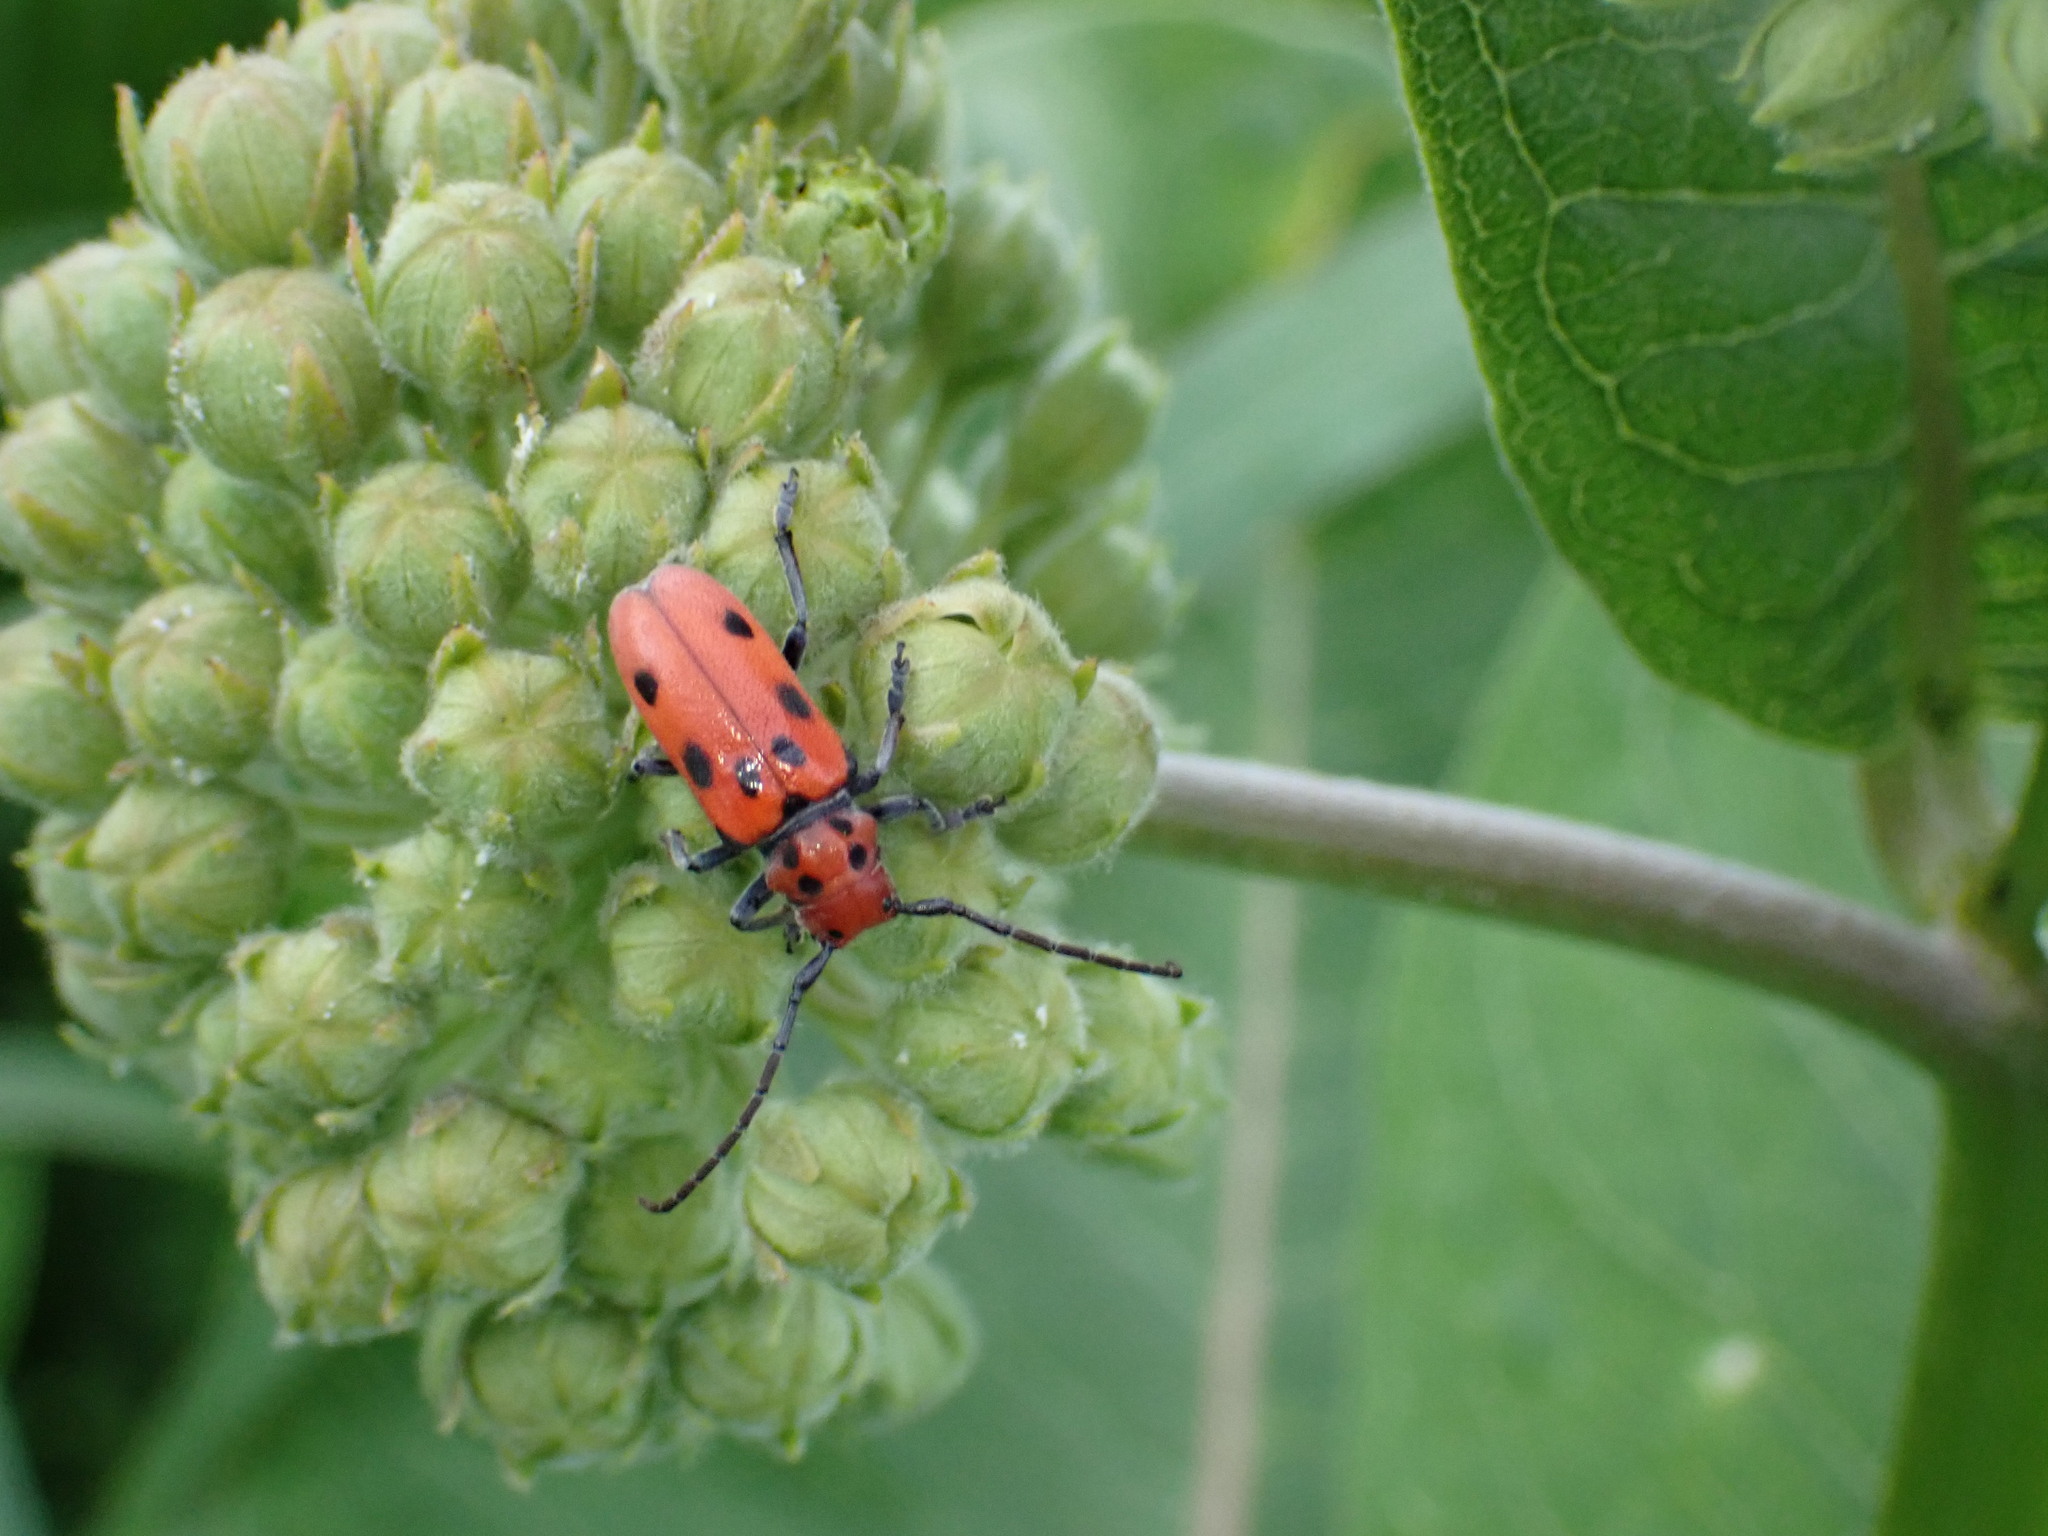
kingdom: Animalia
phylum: Arthropoda
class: Insecta
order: Coleoptera
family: Cerambycidae
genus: Tetraopes
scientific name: Tetraopes tetrophthalmus
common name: Red milkweed beetle
